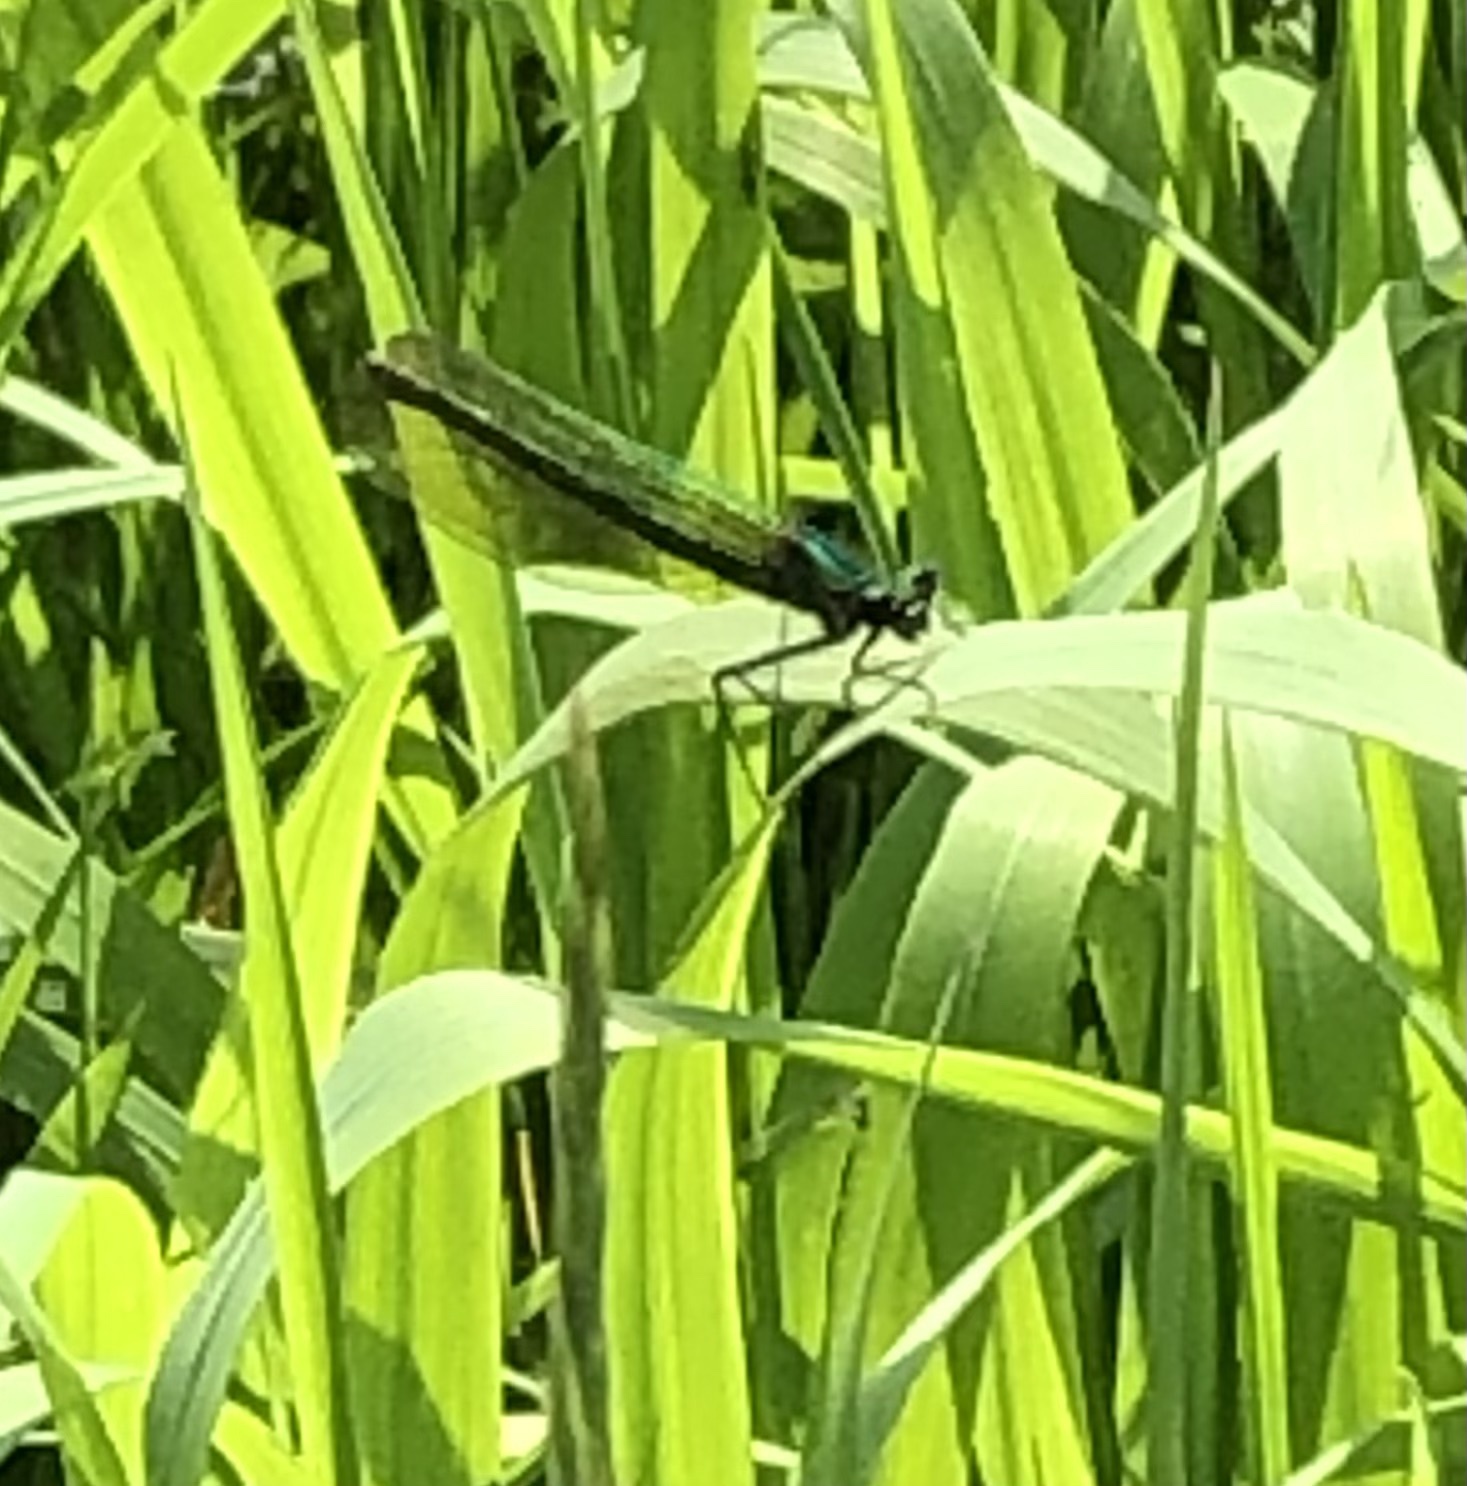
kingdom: Animalia
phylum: Arthropoda
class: Insecta
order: Odonata
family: Calopterygidae
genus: Calopteryx
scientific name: Calopteryx splendens
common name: Banded demoiselle
